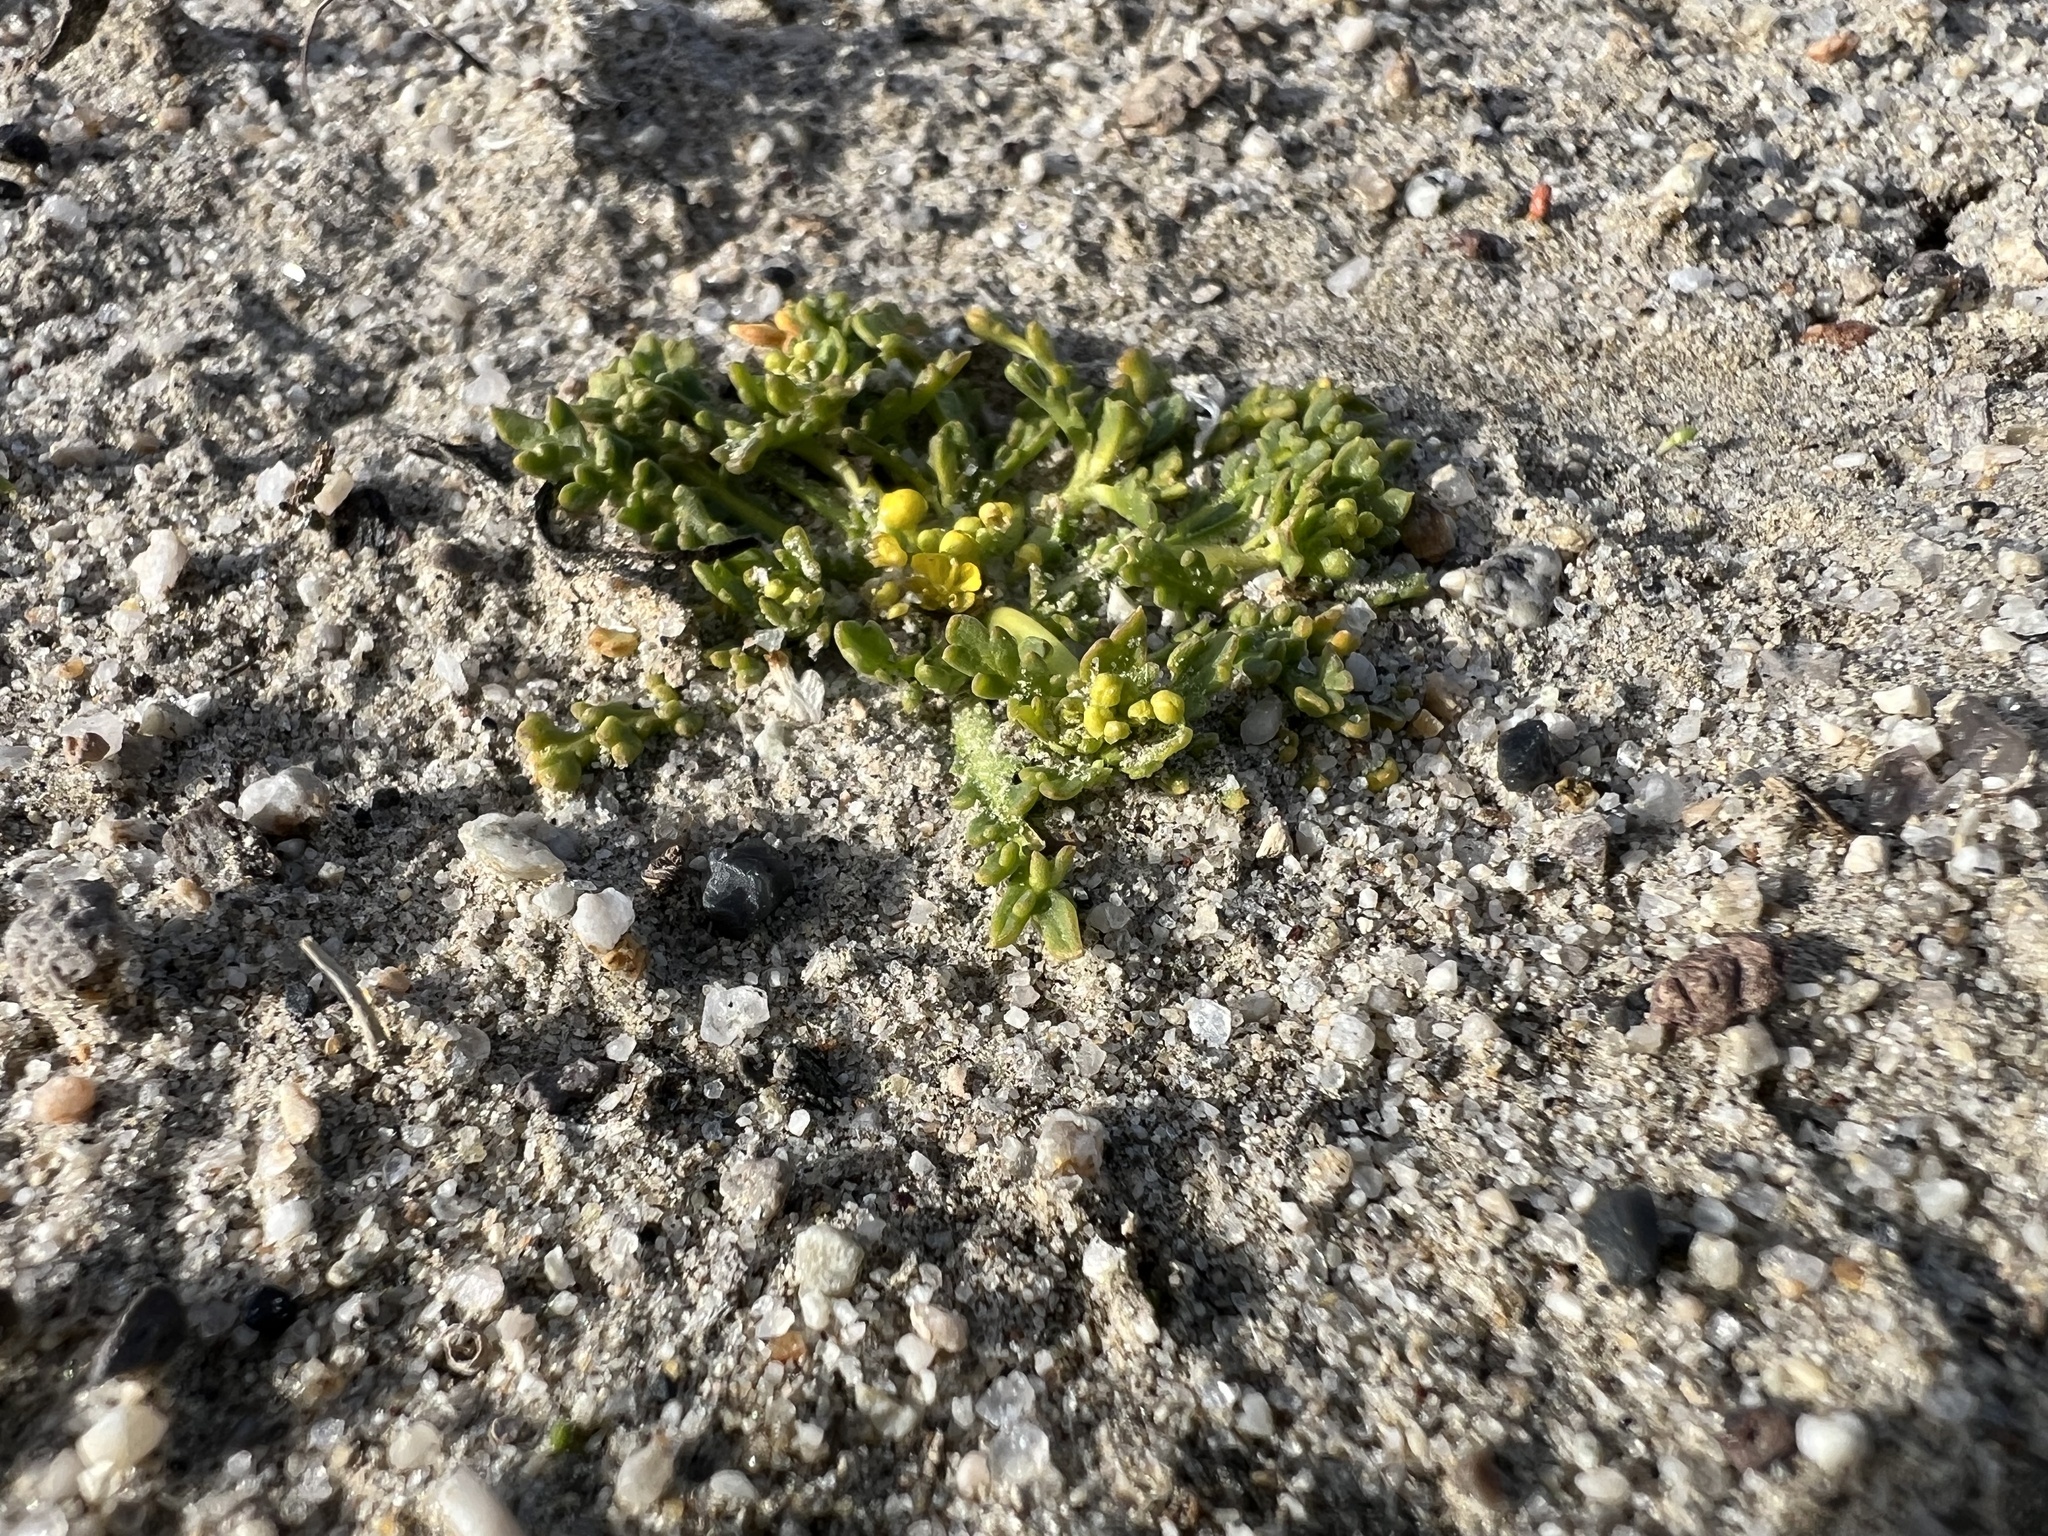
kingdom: Plantae
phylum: Tracheophyta
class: Magnoliopsida
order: Brassicales
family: Brassicaceae
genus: Lepidium
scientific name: Lepidium flavum
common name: Yellow pepperwort
